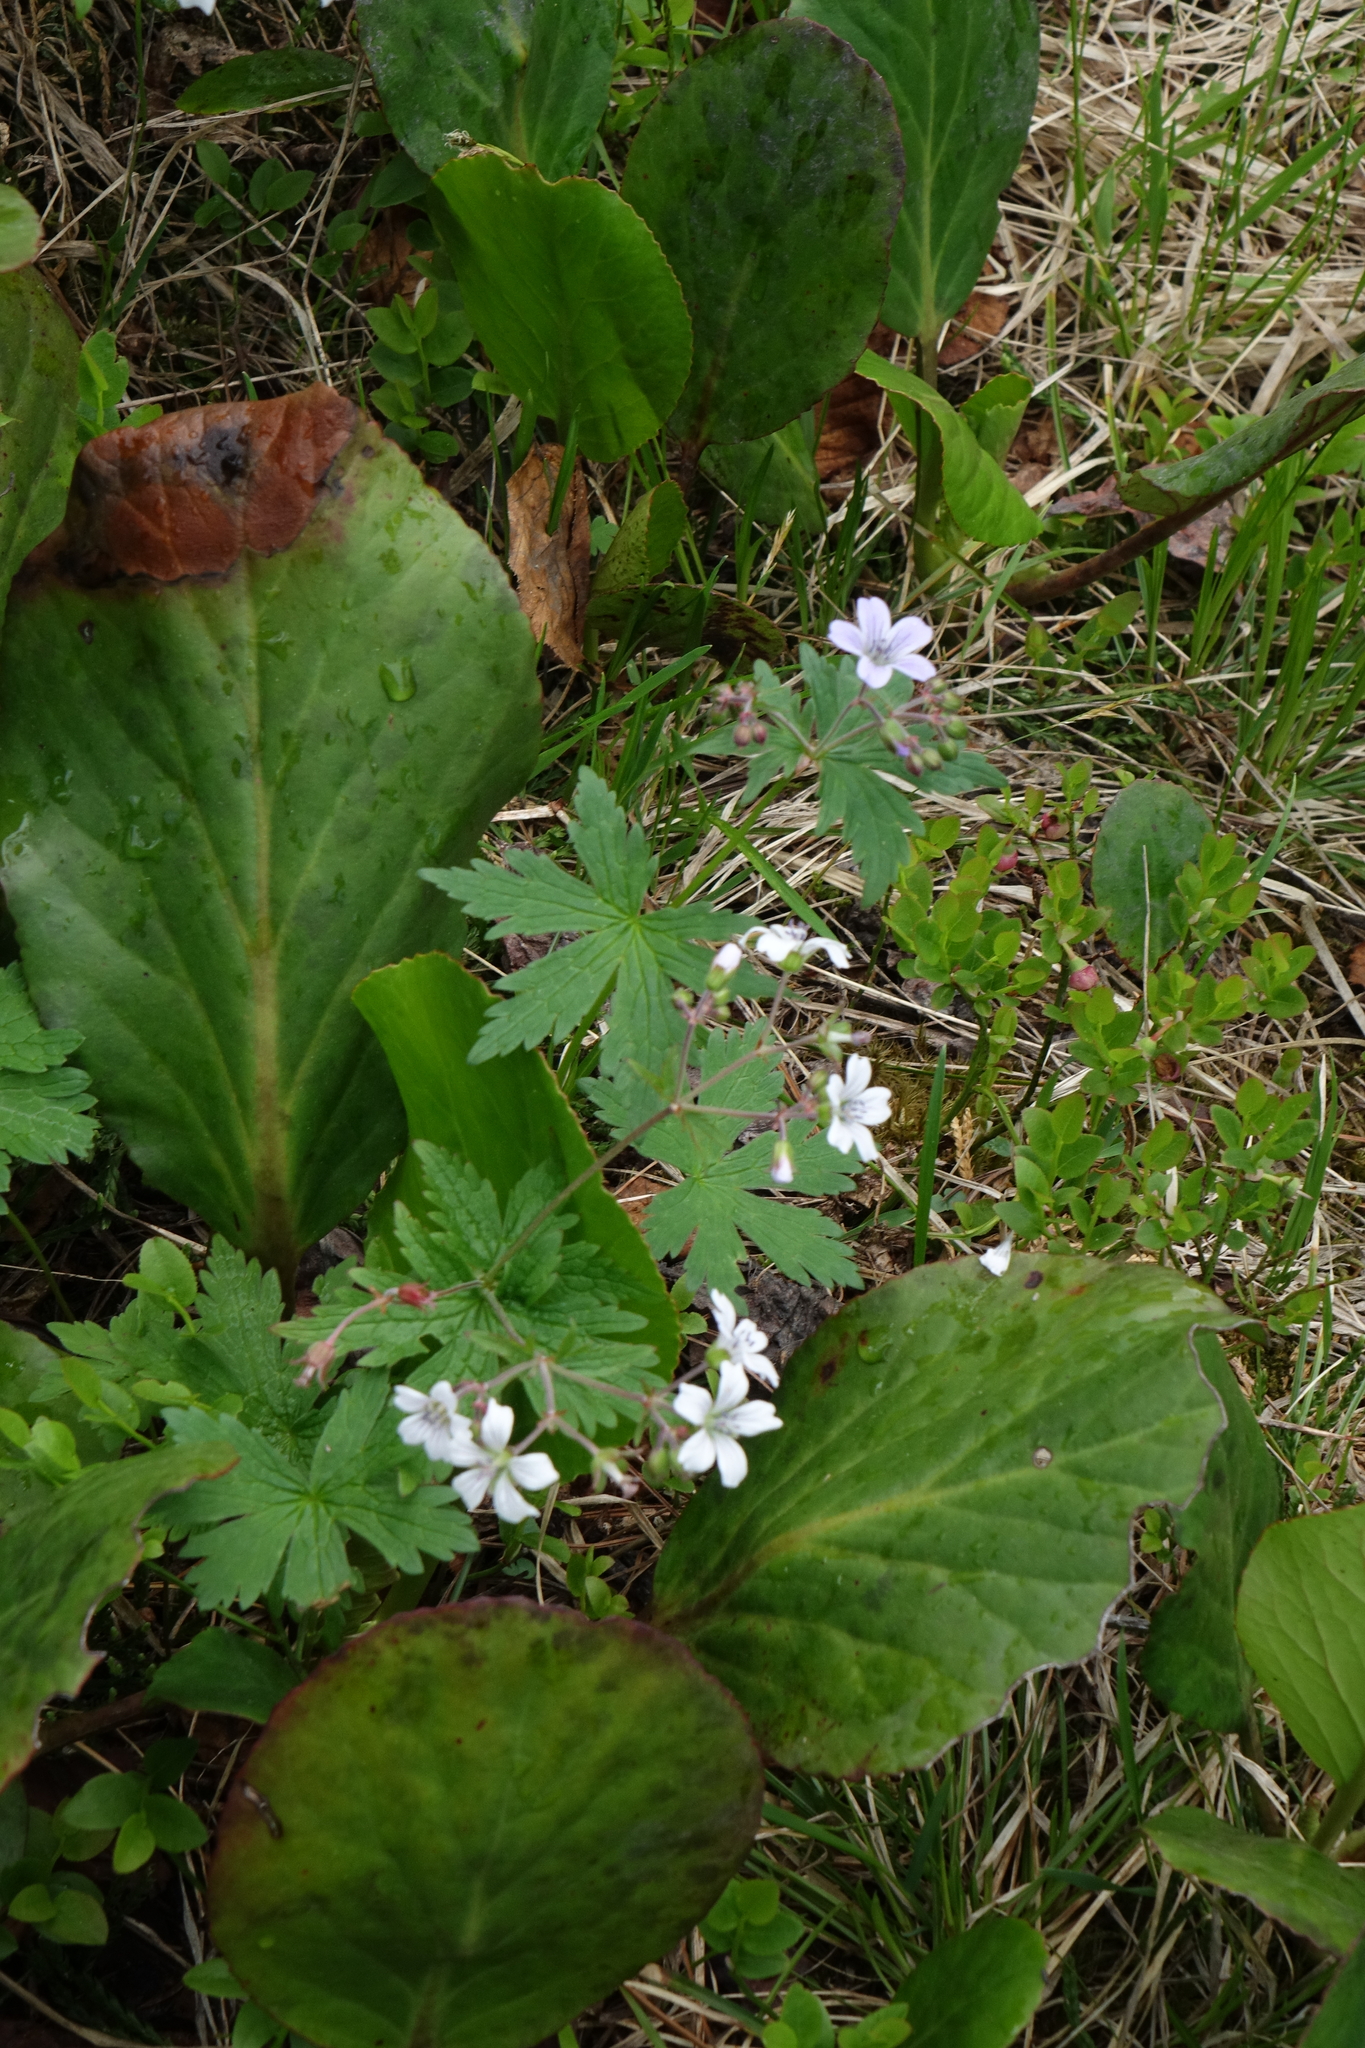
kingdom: Plantae
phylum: Tracheophyta
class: Magnoliopsida
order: Geraniales
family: Geraniaceae
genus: Geranium
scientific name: Geranium sylvaticum
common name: Wood crane's-bill
